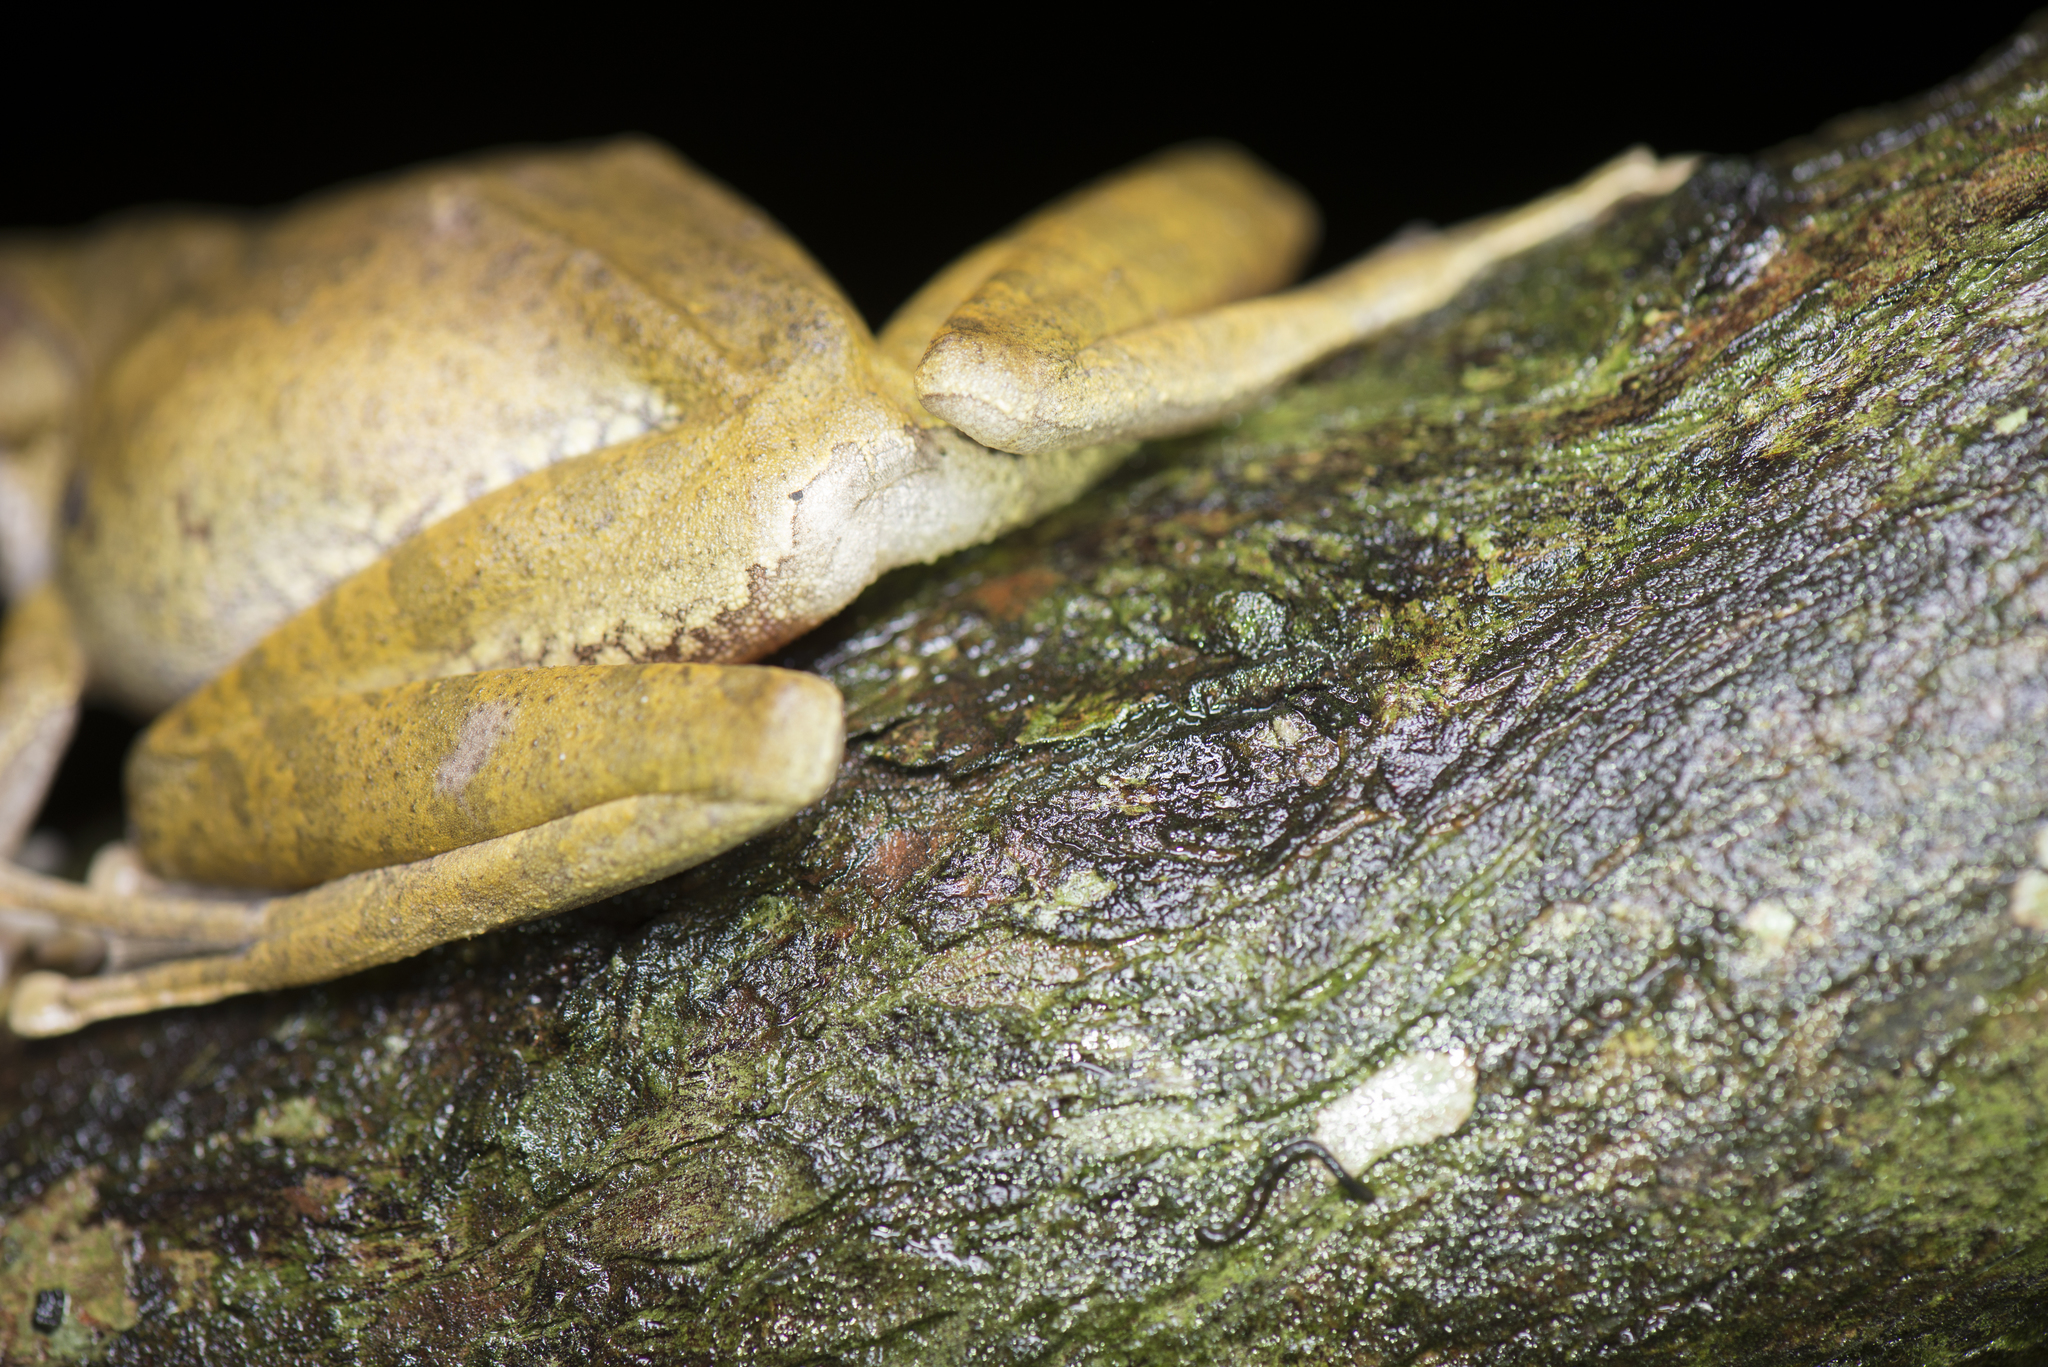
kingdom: Animalia
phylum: Chordata
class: Amphibia
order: Anura
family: Rhacophoridae
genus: Polypedates
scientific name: Polypedates megacephalus
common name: Hong kong whipping frog
